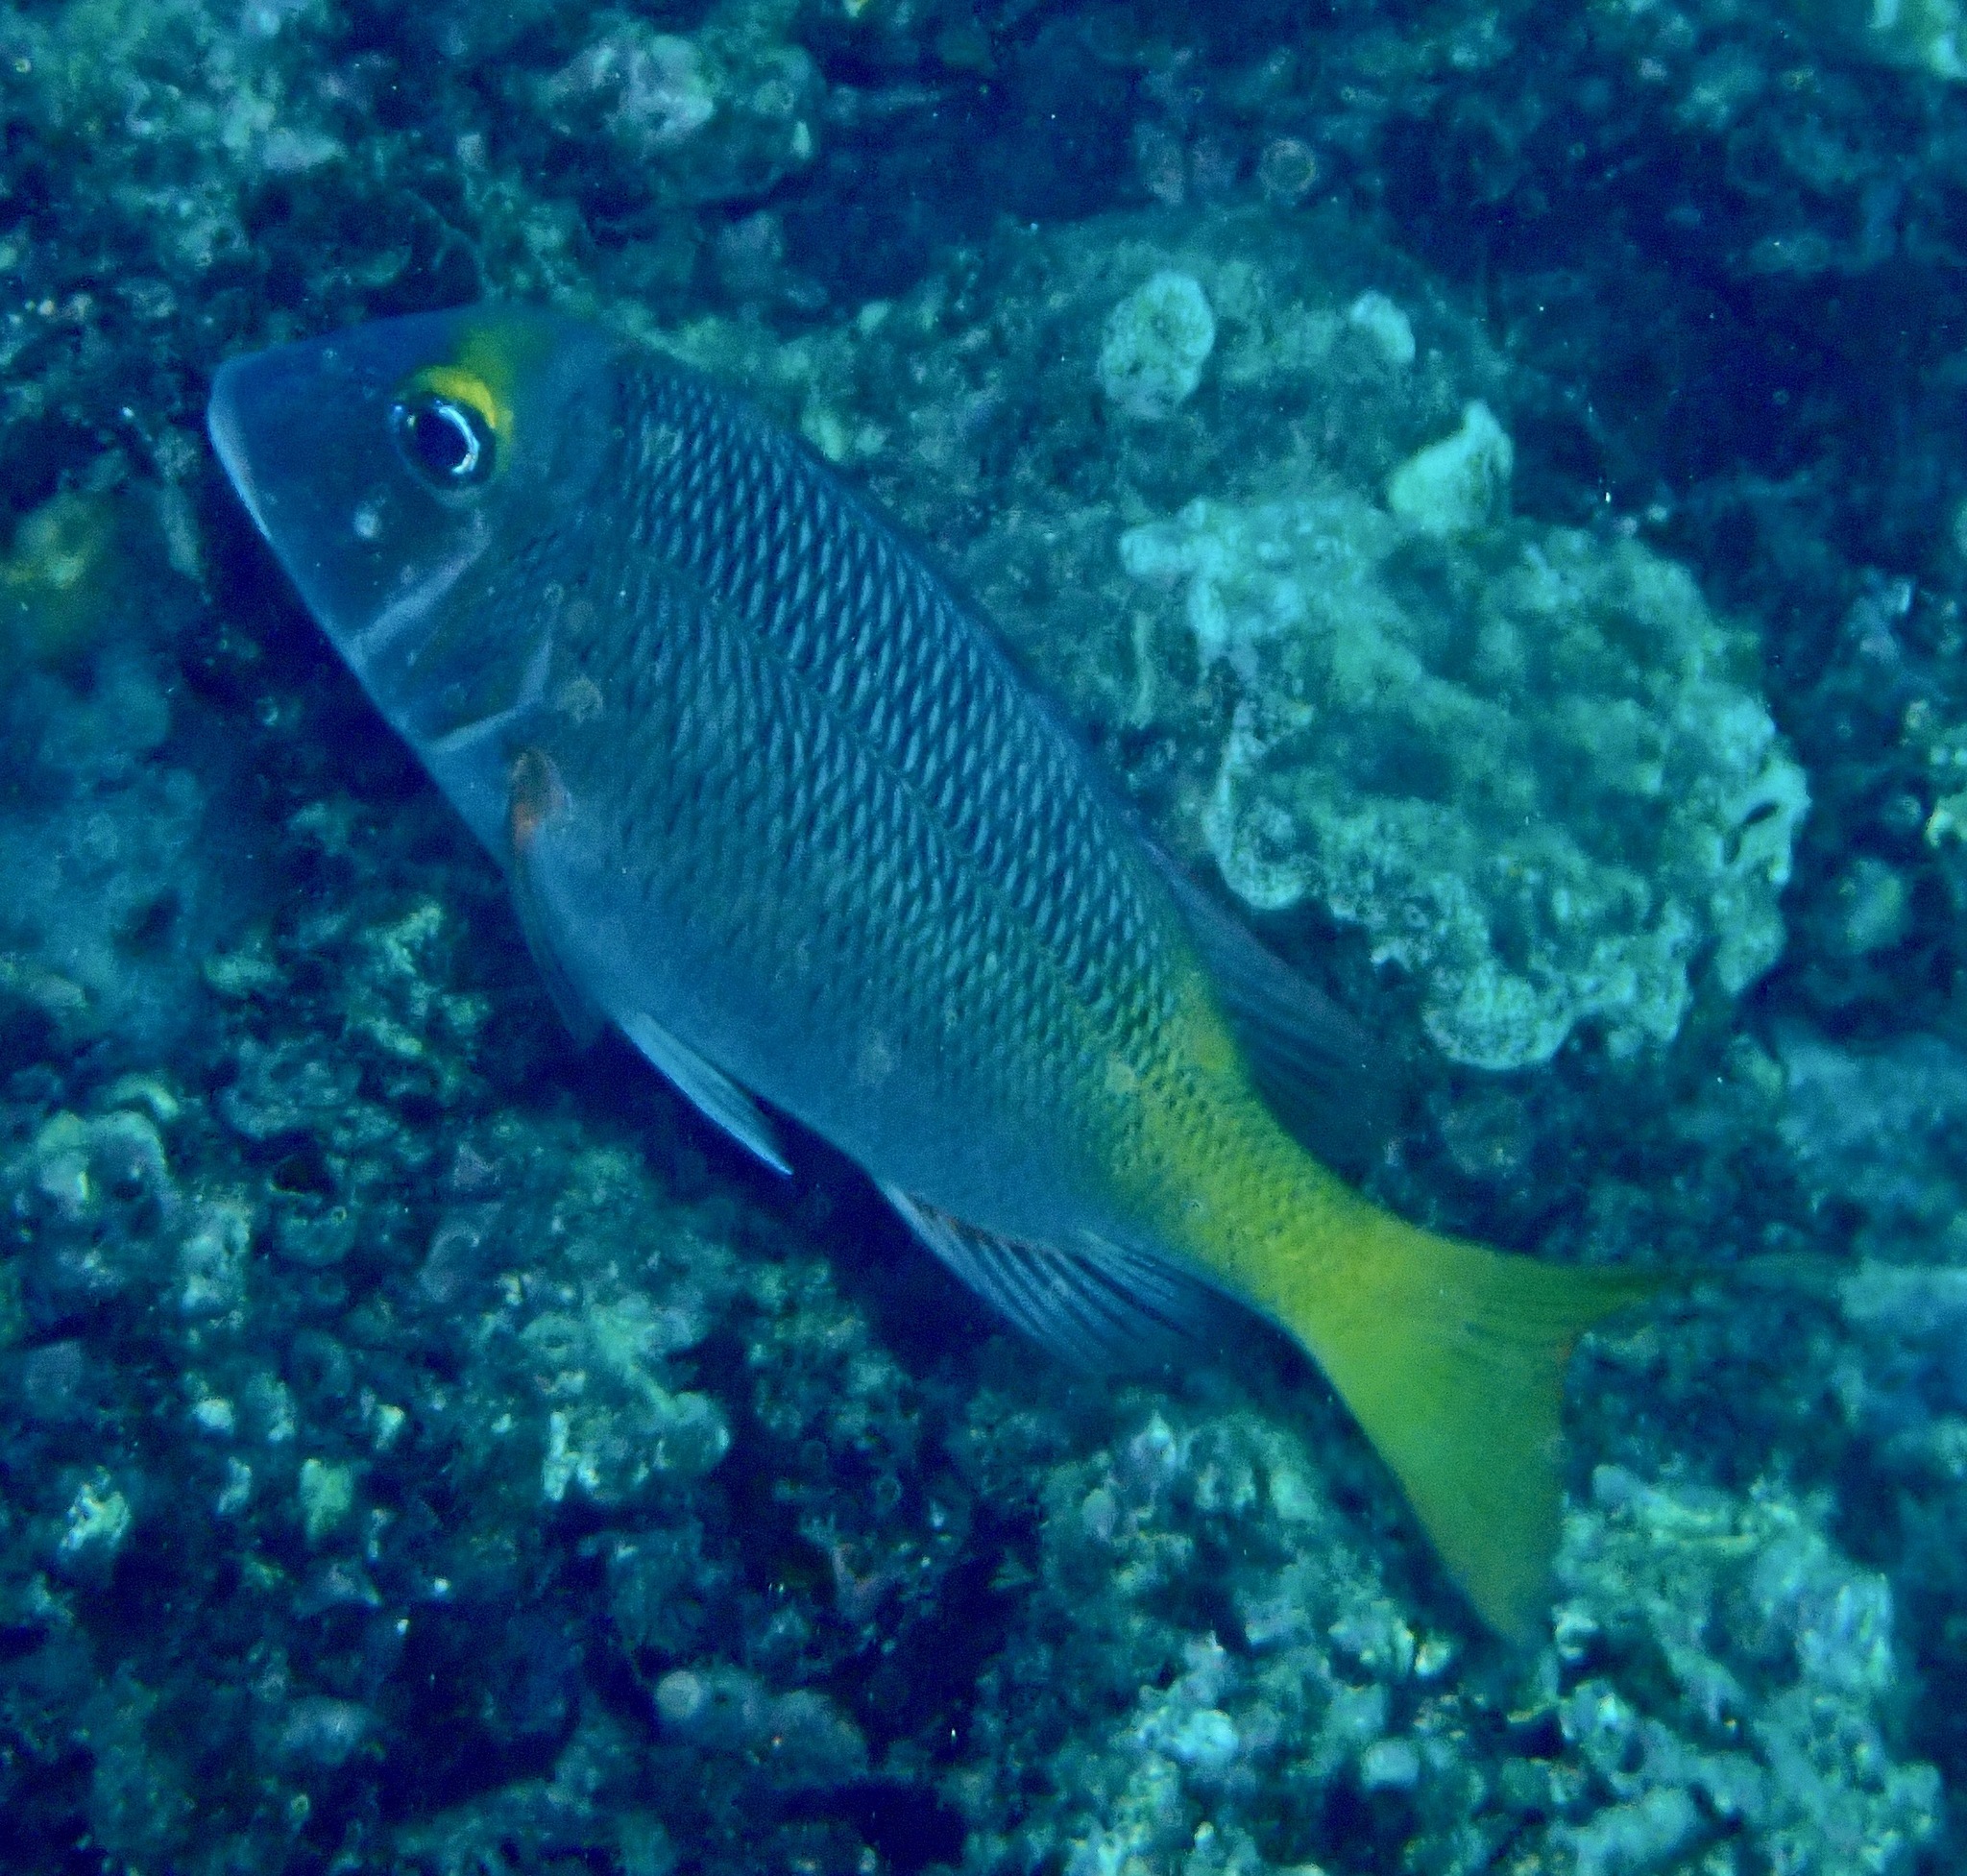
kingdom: Animalia
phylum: Chordata
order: Perciformes
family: Lethrinidae
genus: Lethrinus
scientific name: Lethrinus atkinsoni
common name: Pacific yellowtail emperor
